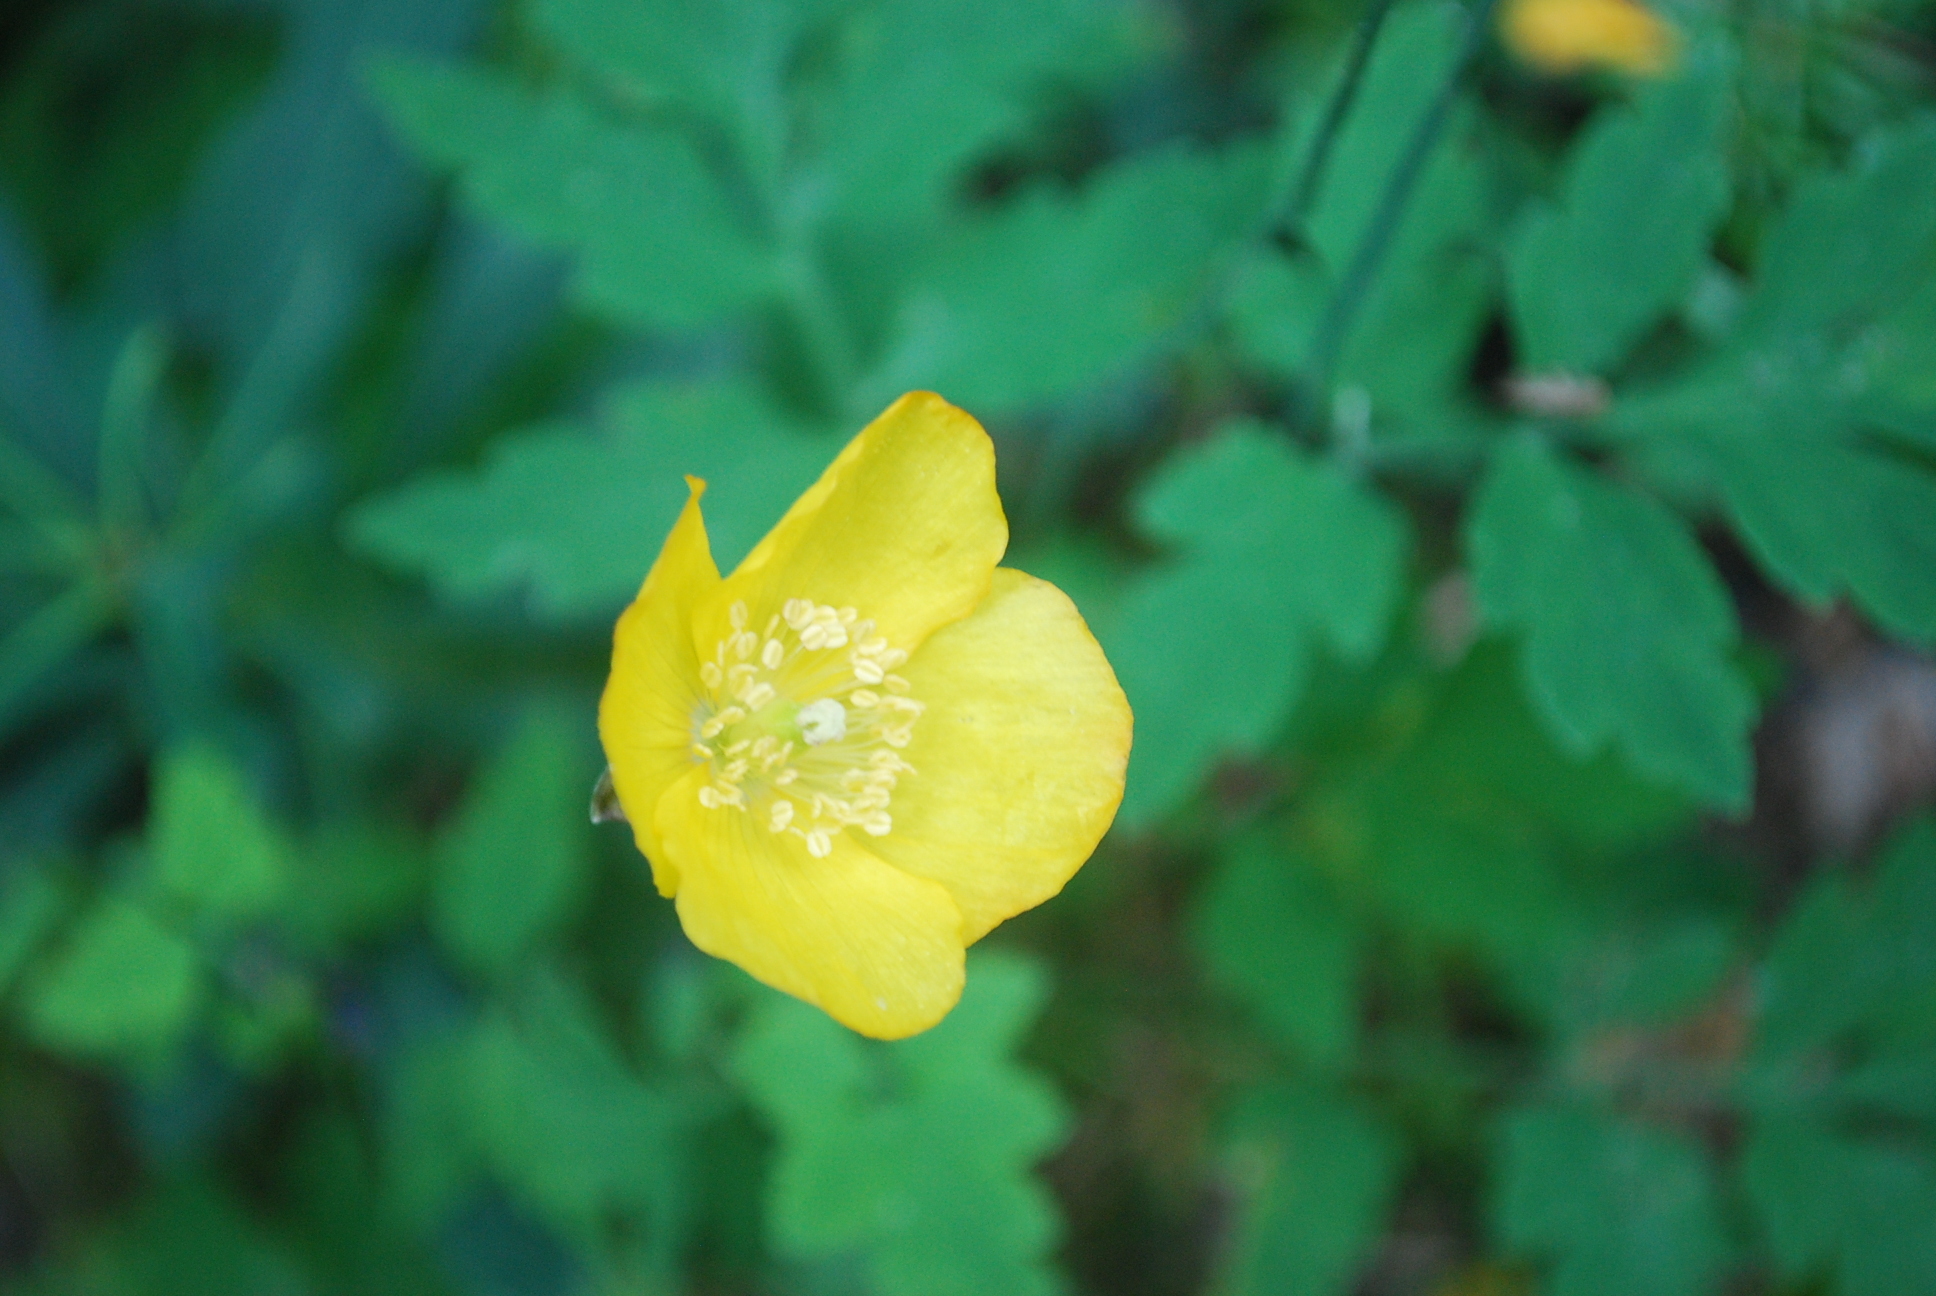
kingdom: Plantae
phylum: Tracheophyta
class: Magnoliopsida
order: Ranunculales
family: Papaveraceae
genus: Papaver
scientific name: Papaver cambricum
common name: Poppy
